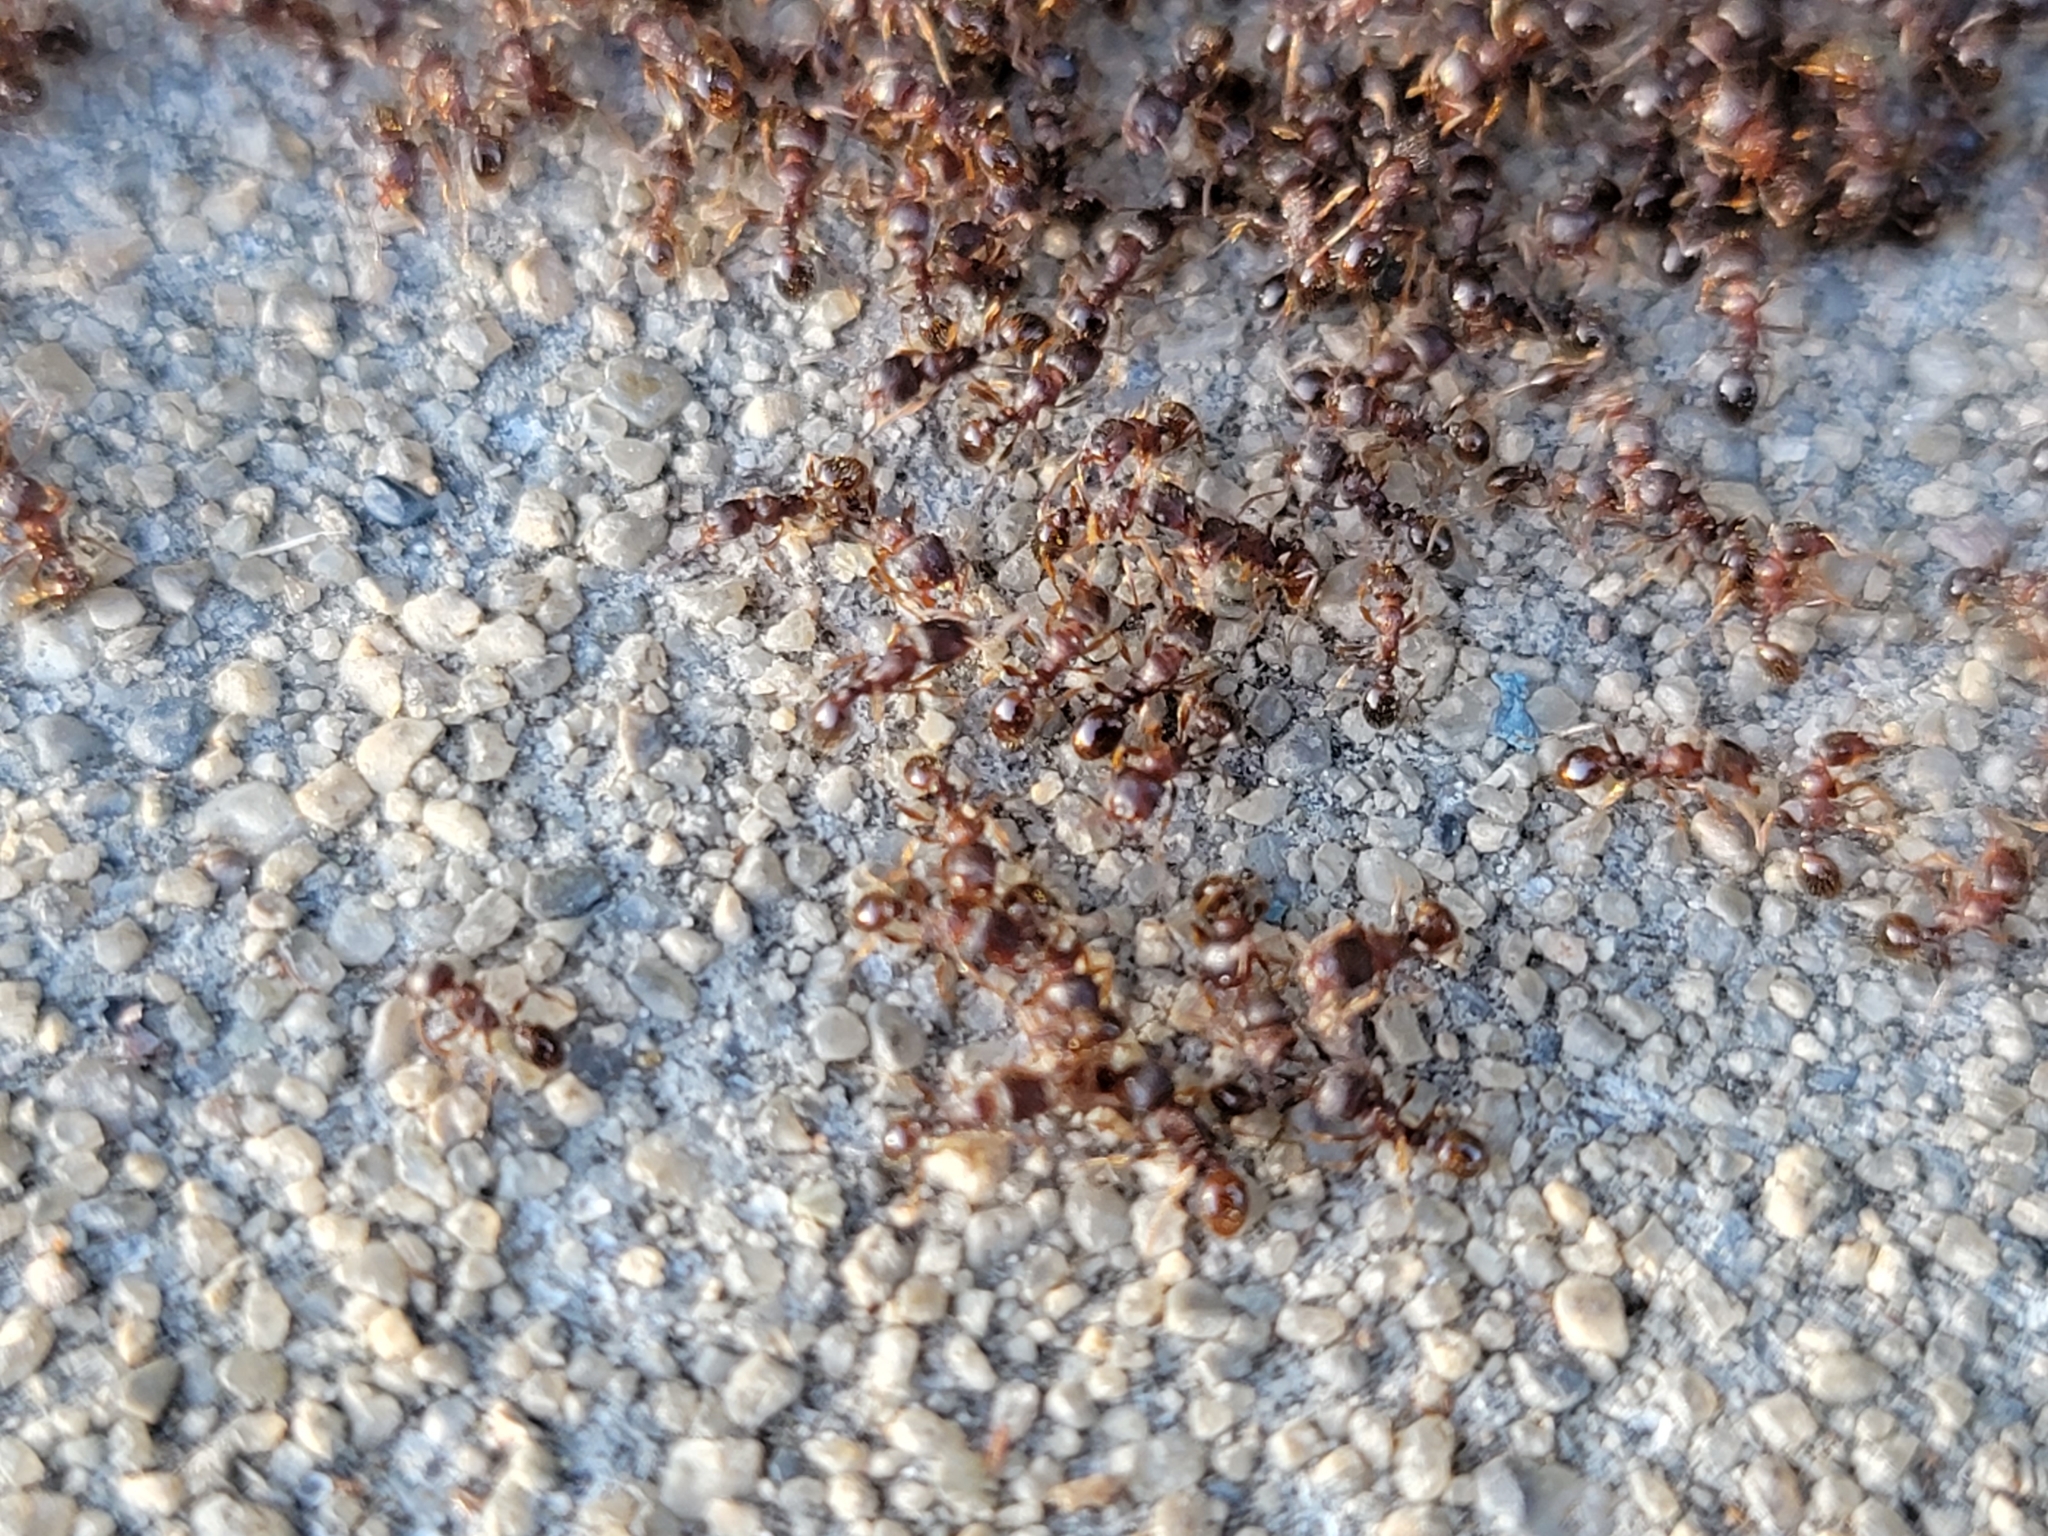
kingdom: Animalia
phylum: Arthropoda
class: Insecta
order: Hymenoptera
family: Formicidae
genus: Tetramorium
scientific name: Tetramorium immigrans
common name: Pavement ant
